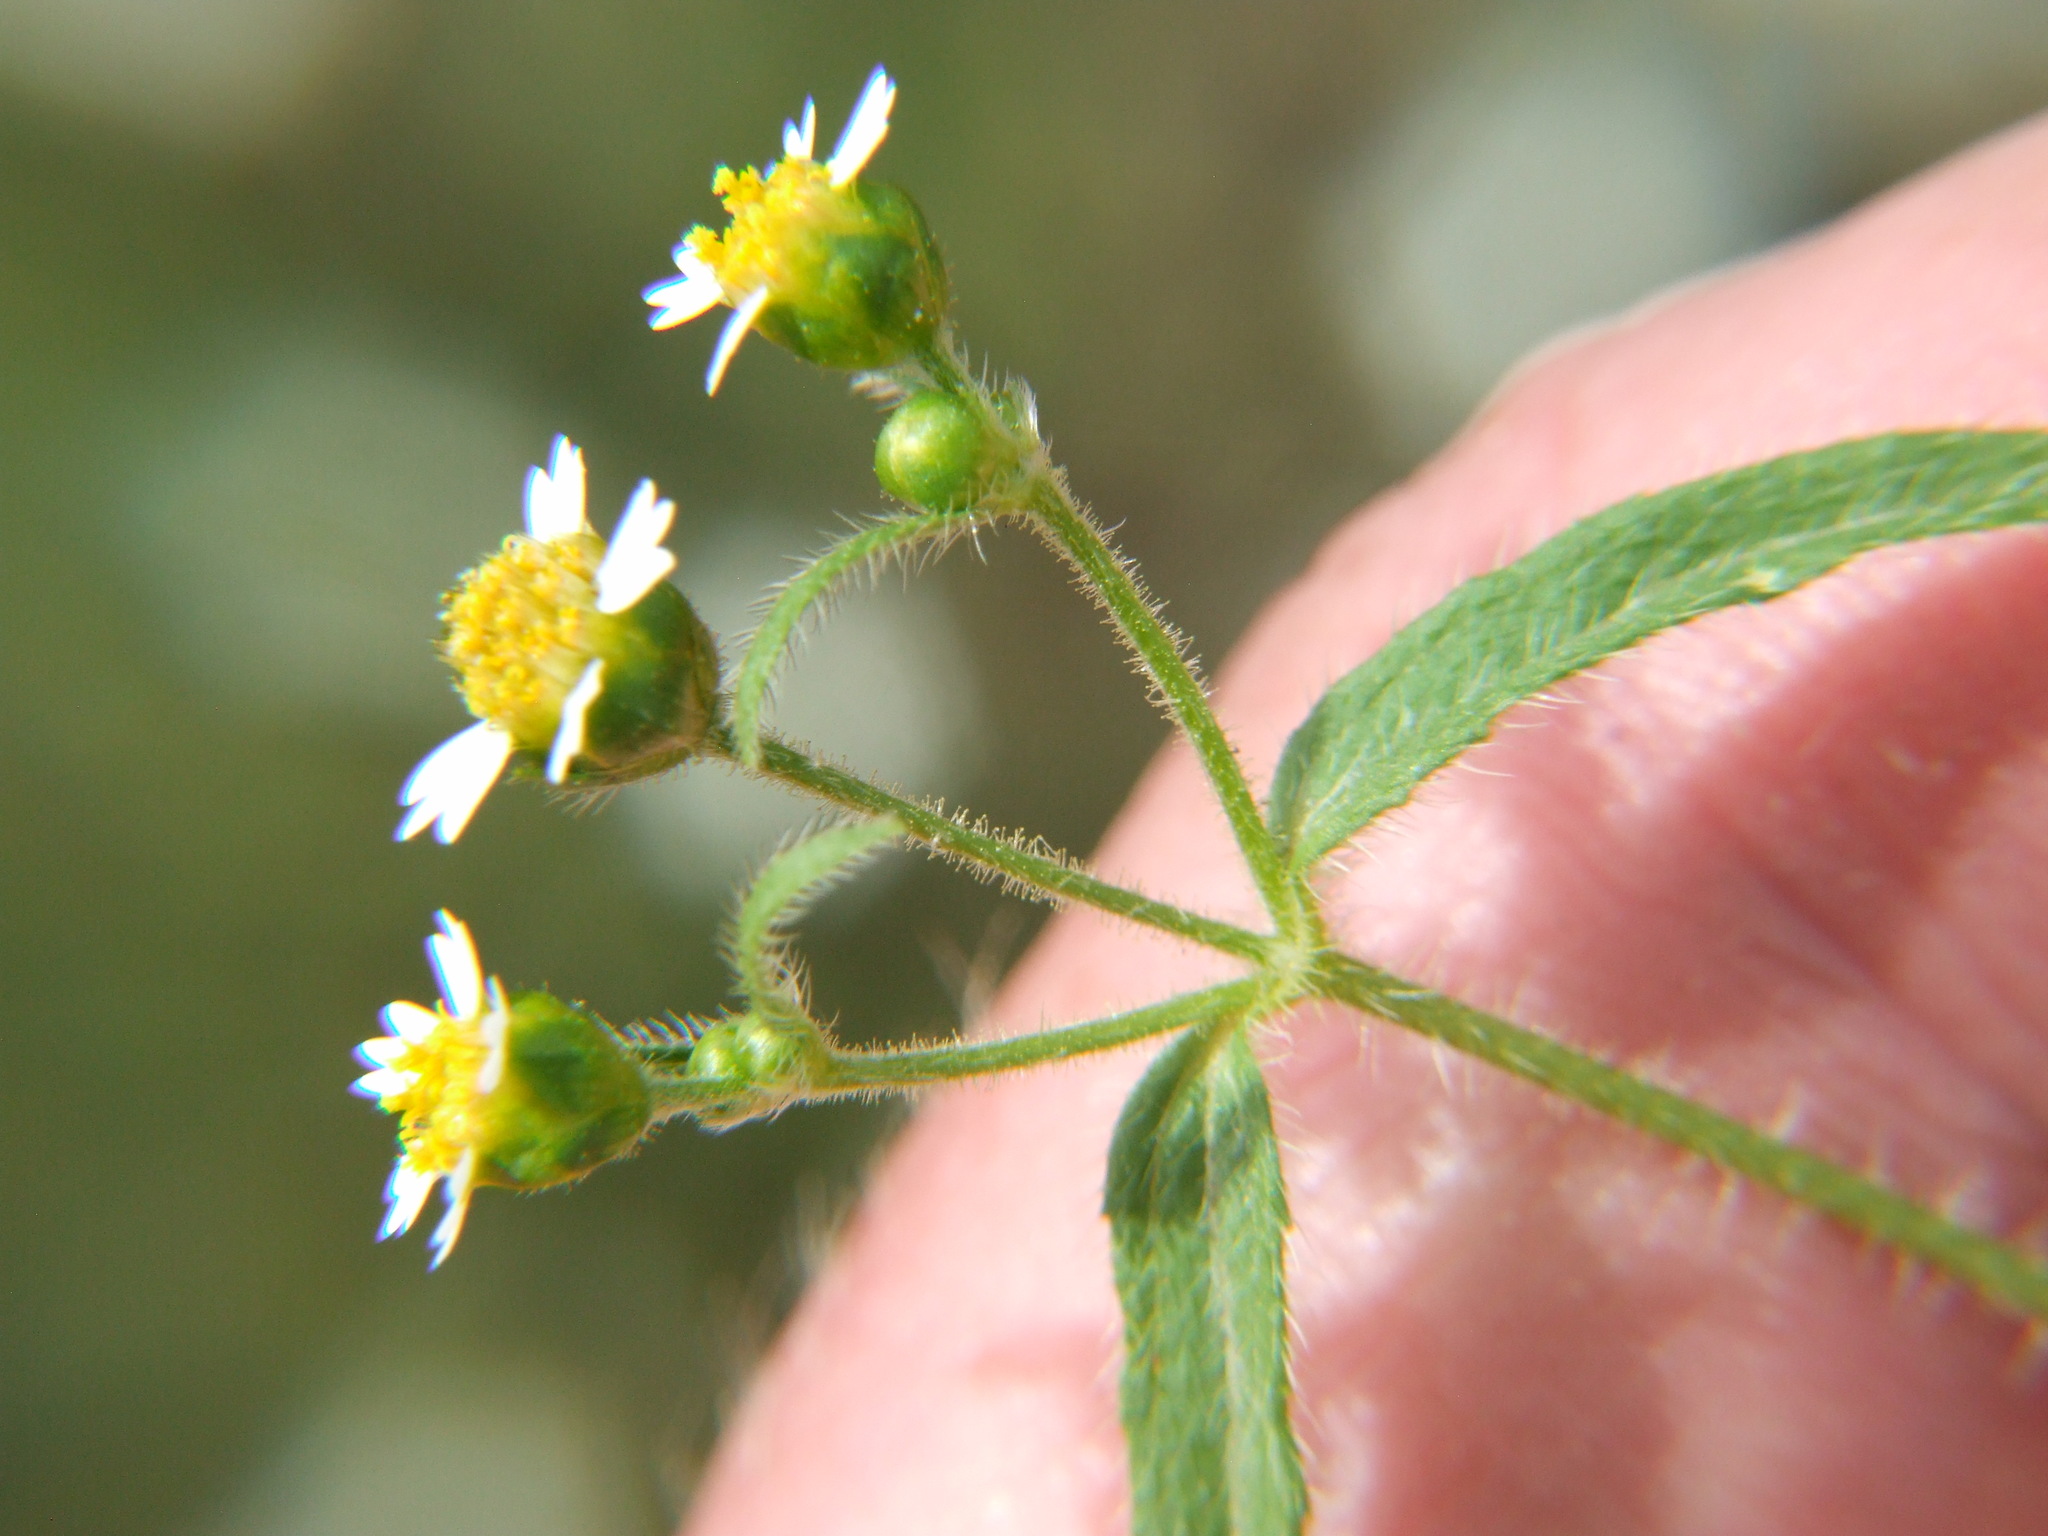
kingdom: Plantae
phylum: Tracheophyta
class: Magnoliopsida
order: Asterales
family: Asteraceae
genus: Galinsoga
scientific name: Galinsoga quadriradiata
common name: Shaggy soldier
